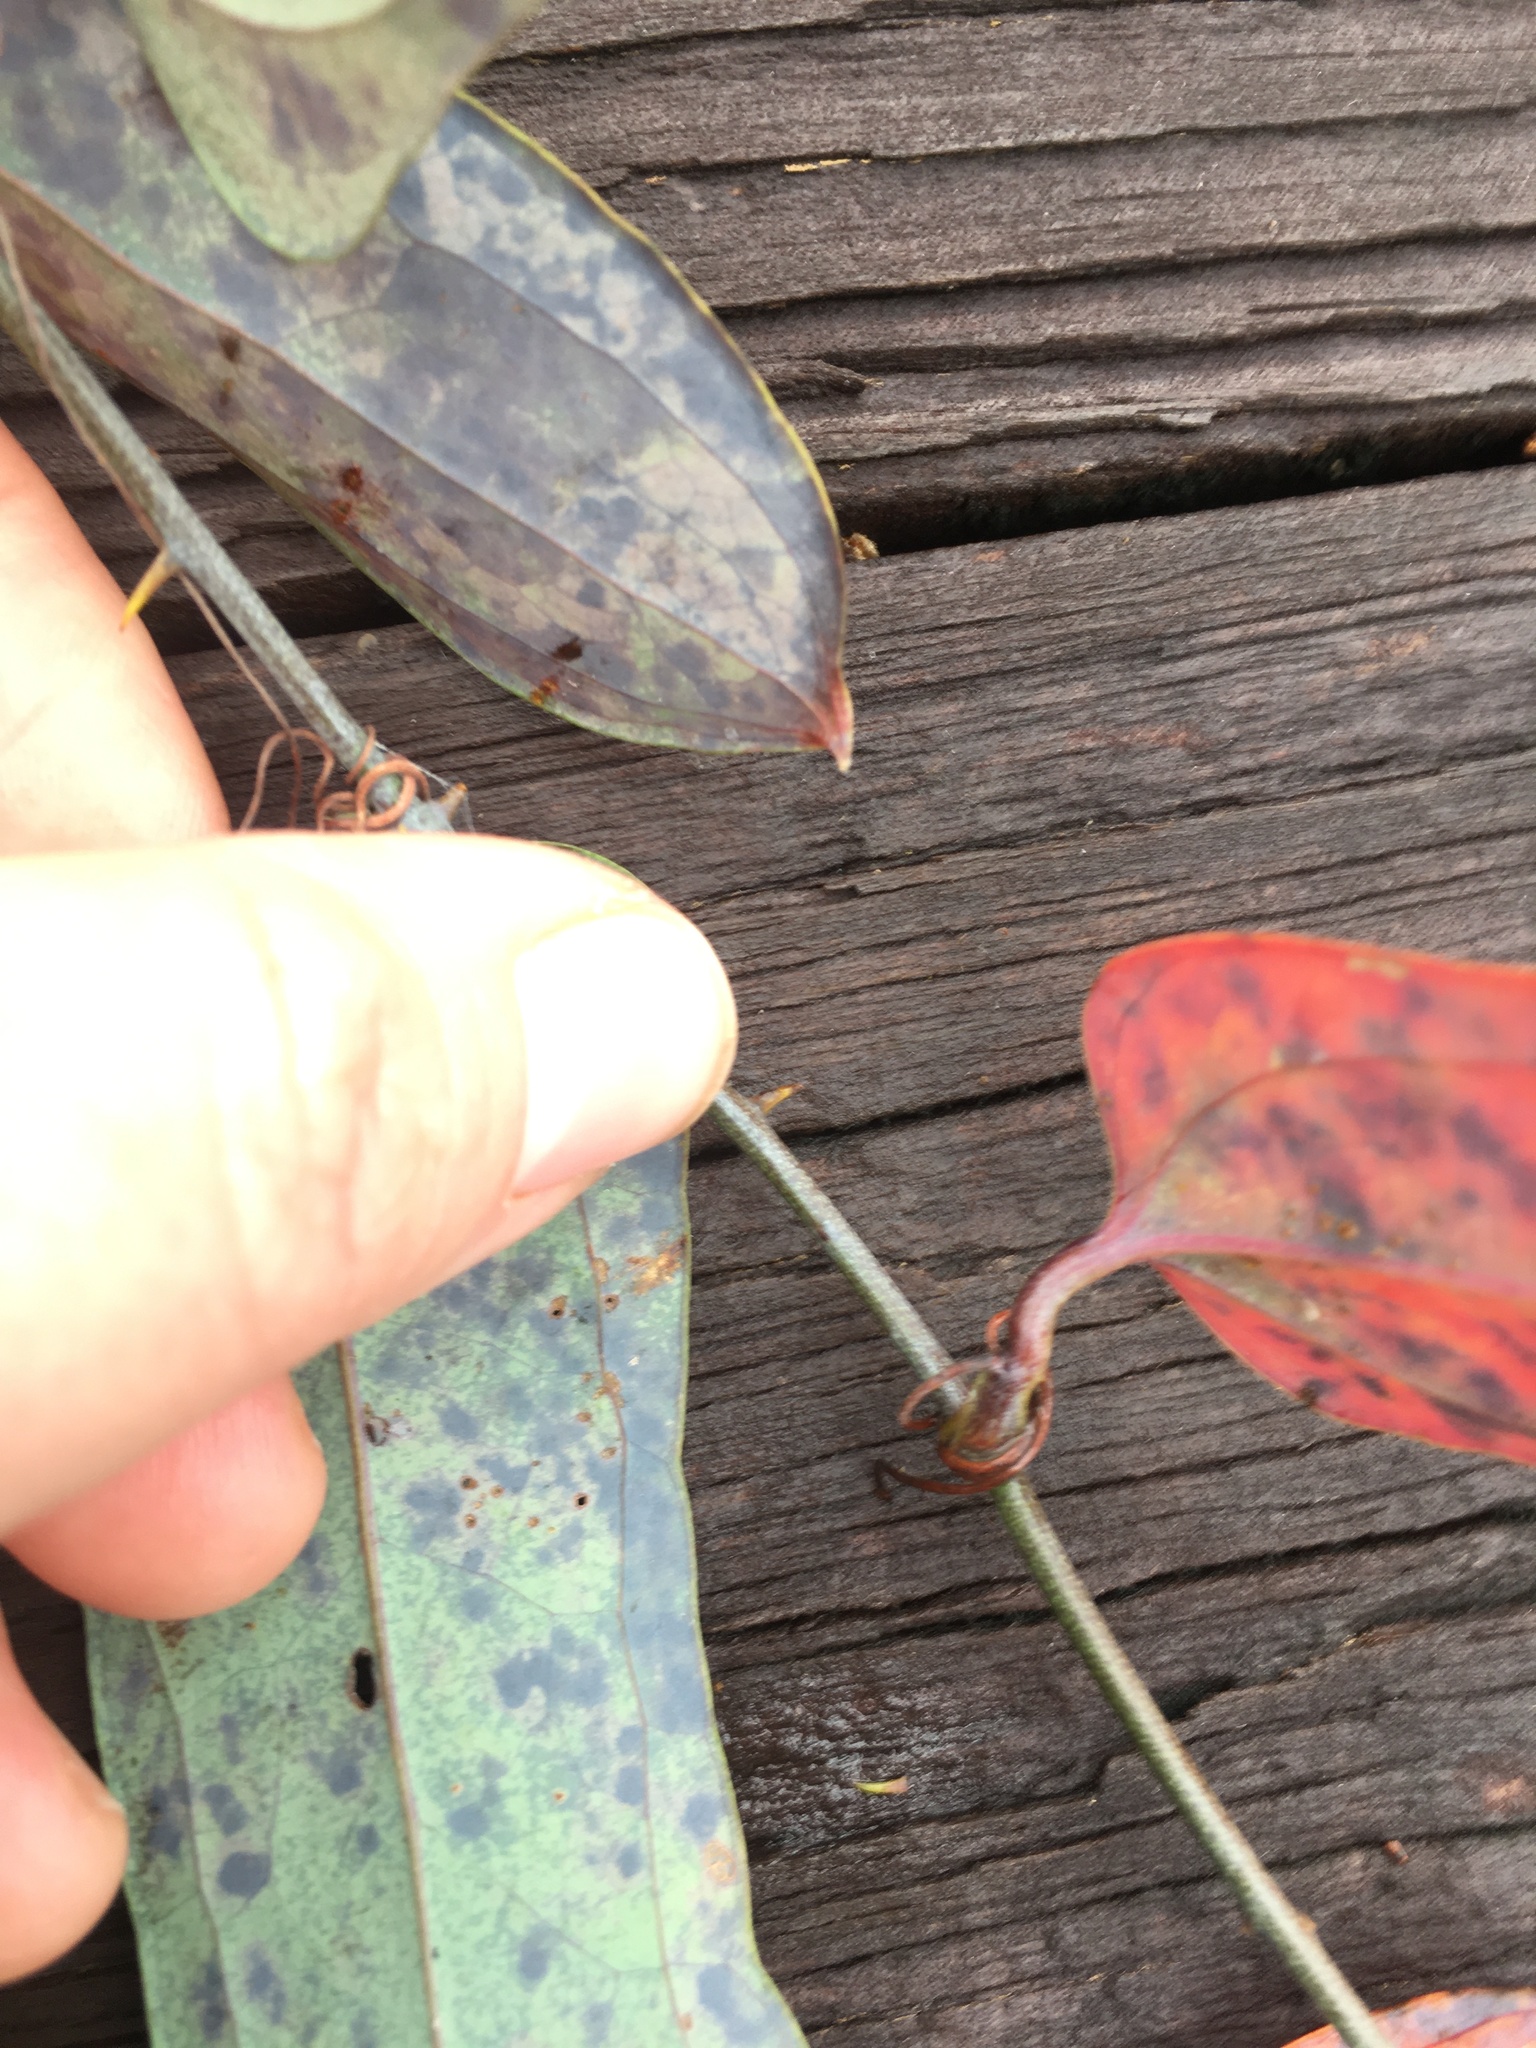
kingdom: Plantae
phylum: Tracheophyta
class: Liliopsida
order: Liliales
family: Smilacaceae
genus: Smilax
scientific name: Smilax glauca
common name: Cat greenbrier
